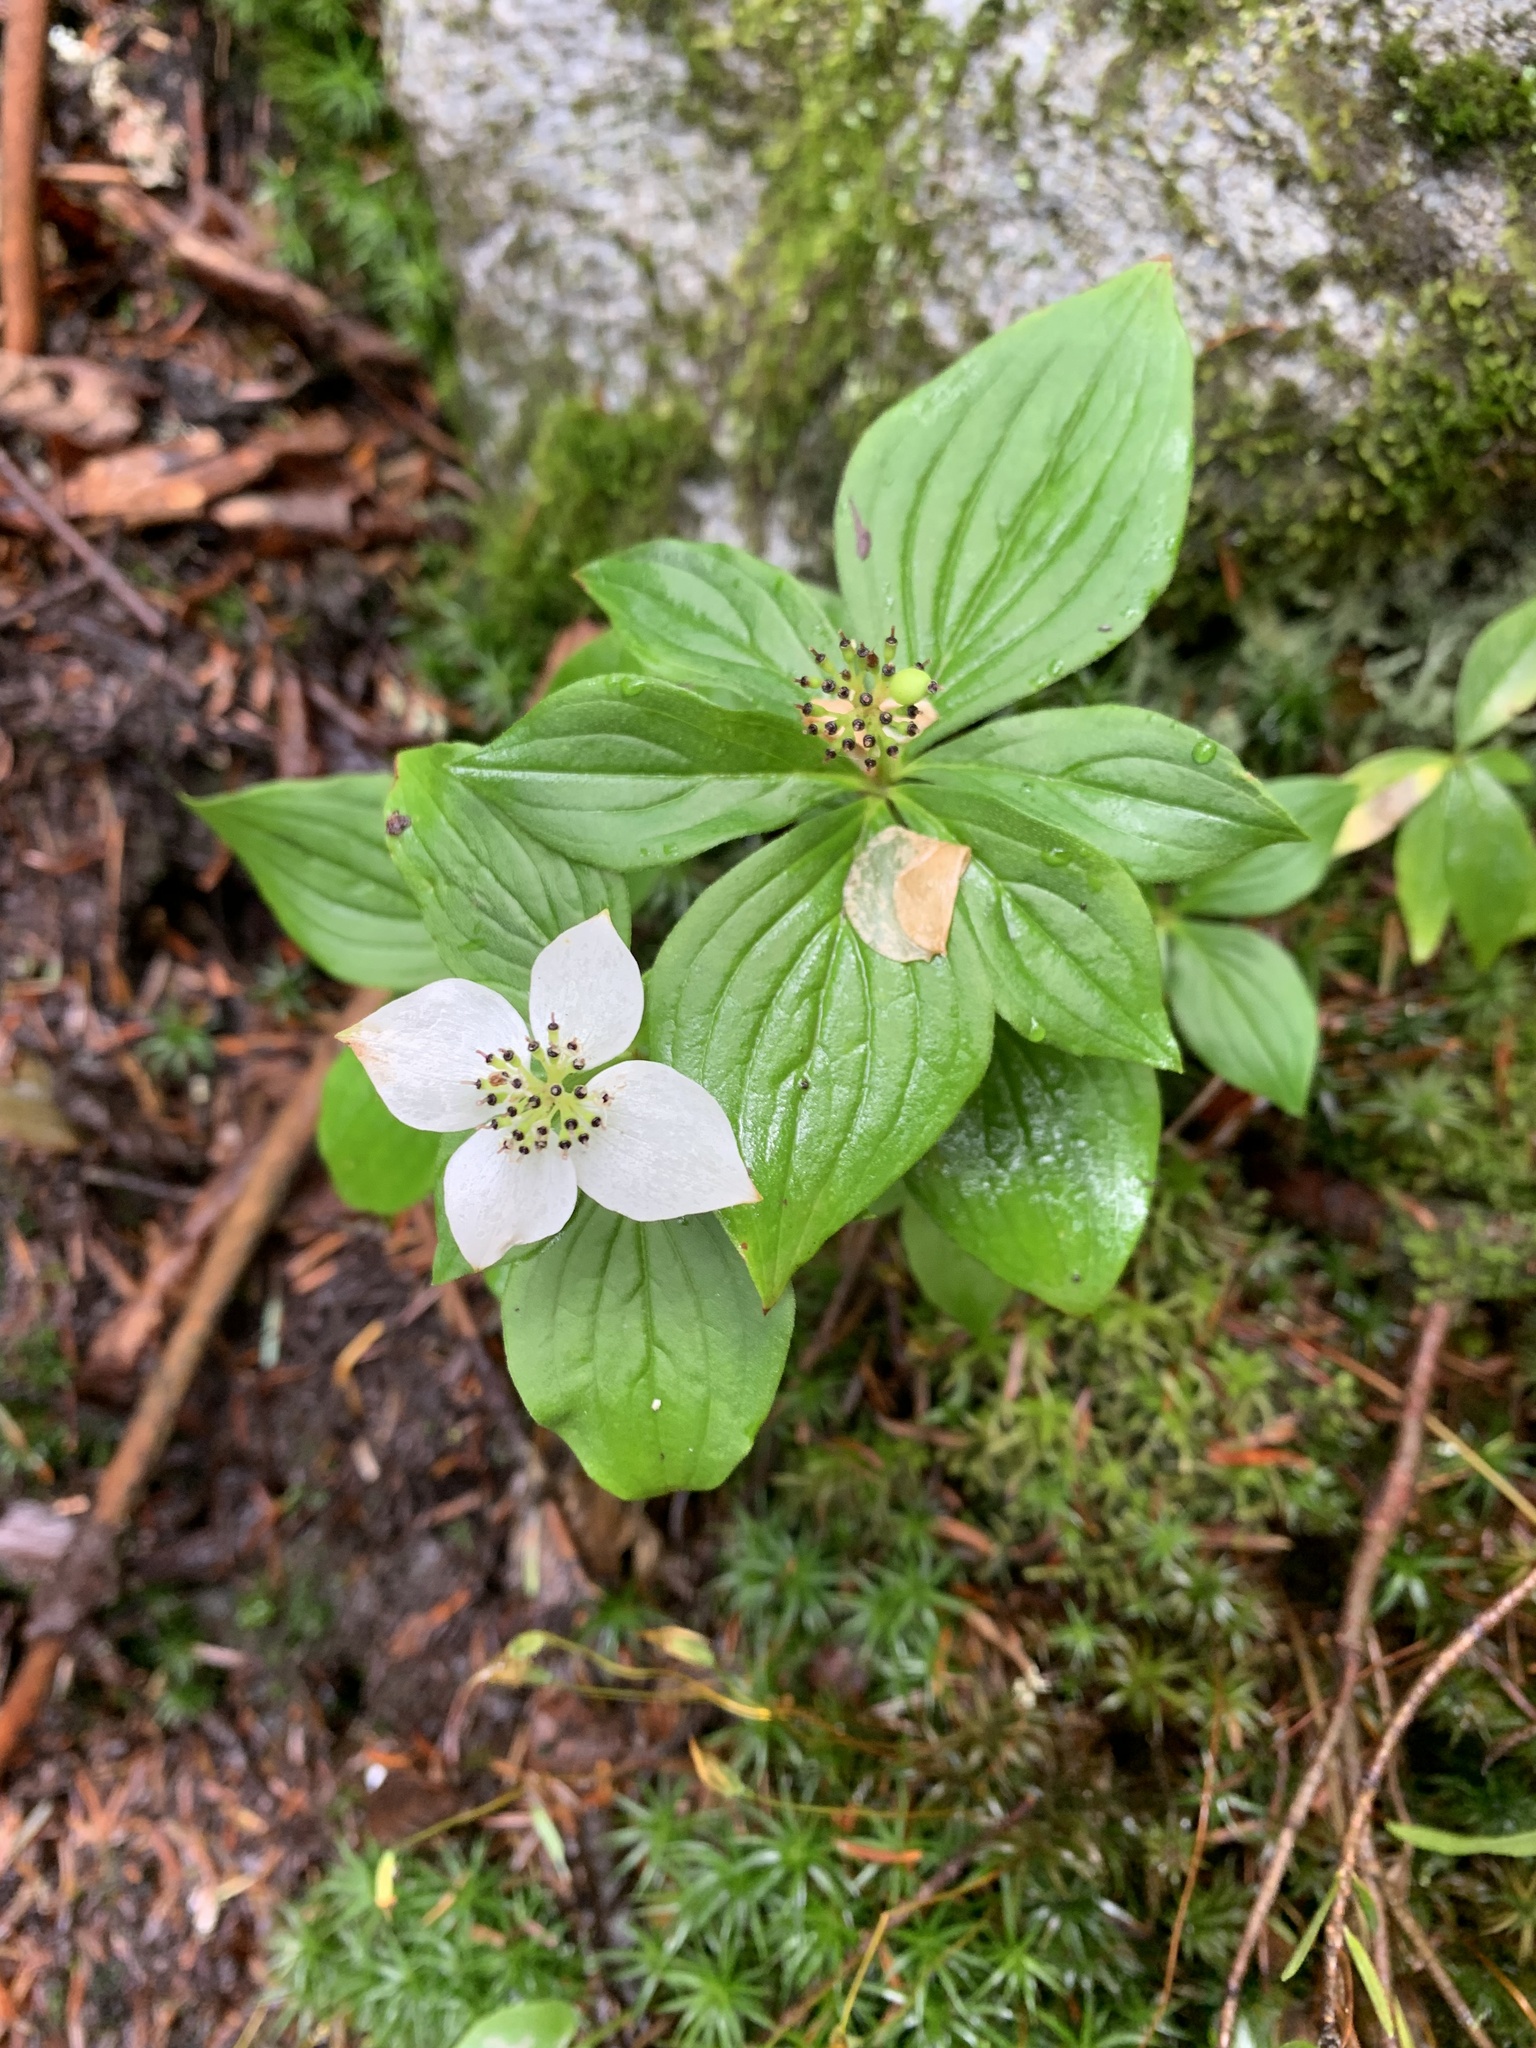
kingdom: Plantae
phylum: Tracheophyta
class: Magnoliopsida
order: Cornales
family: Cornaceae
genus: Cornus
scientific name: Cornus canadensis
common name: Creeping dogwood
